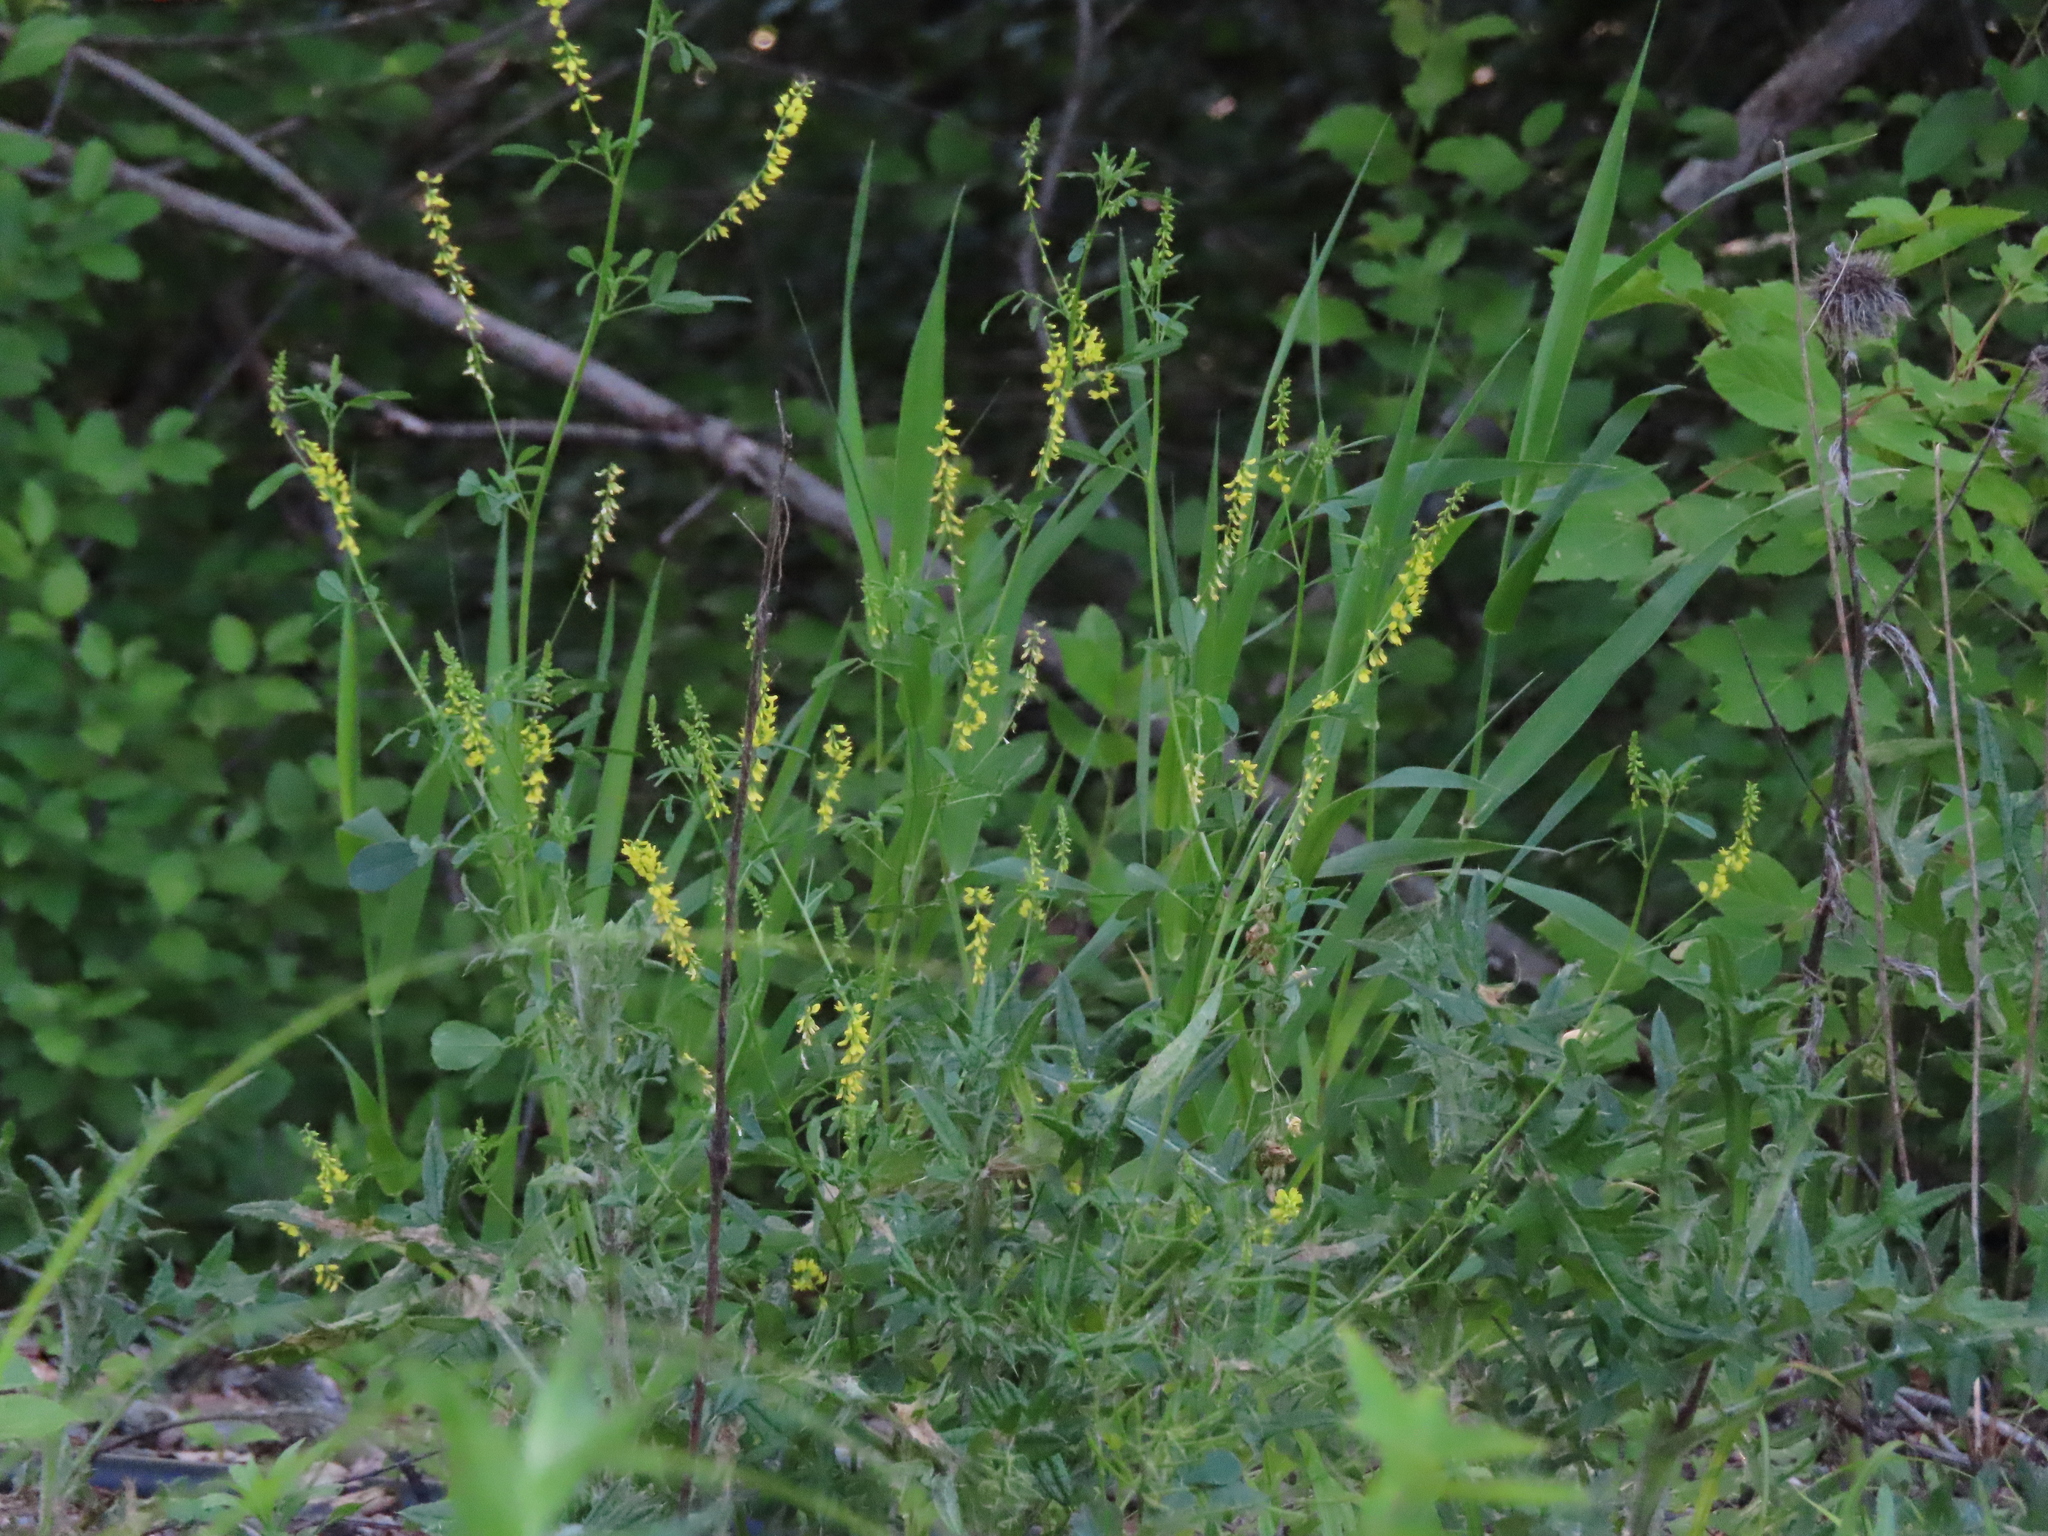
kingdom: Plantae
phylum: Tracheophyta
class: Magnoliopsida
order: Fabales
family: Fabaceae
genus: Melilotus
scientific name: Melilotus officinalis
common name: Sweetclover
